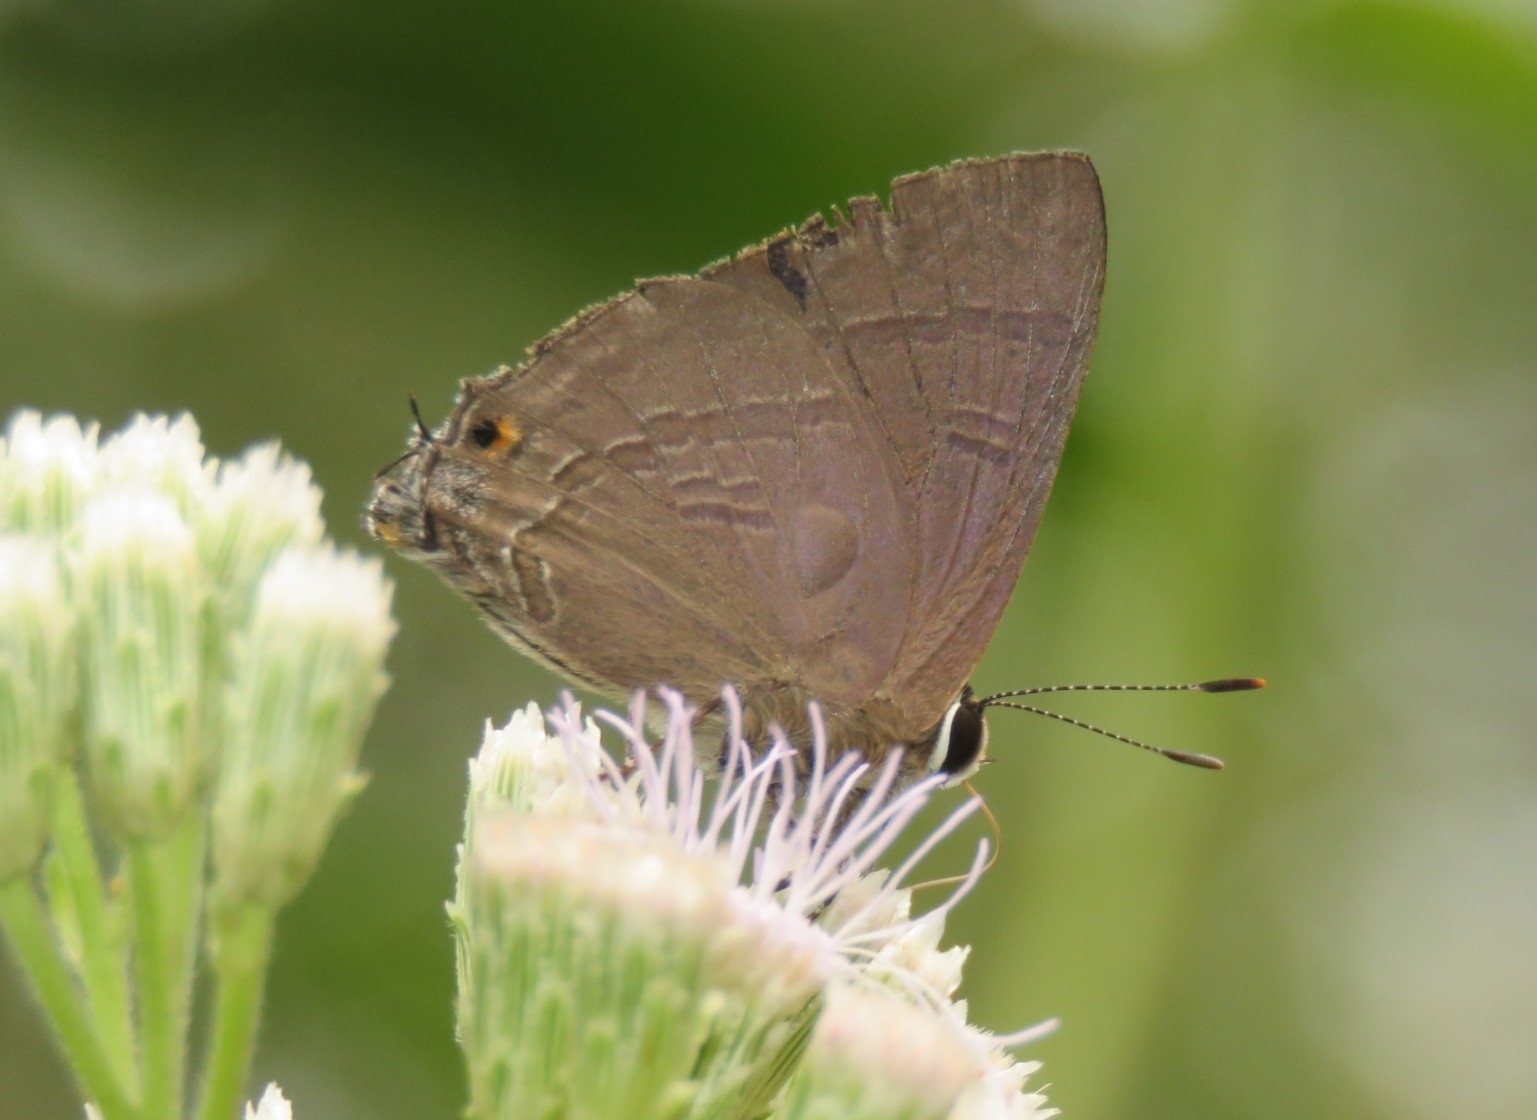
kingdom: Animalia
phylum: Arthropoda
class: Insecta
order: Lepidoptera
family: Lycaenidae
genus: Rapala
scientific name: Rapala manea
